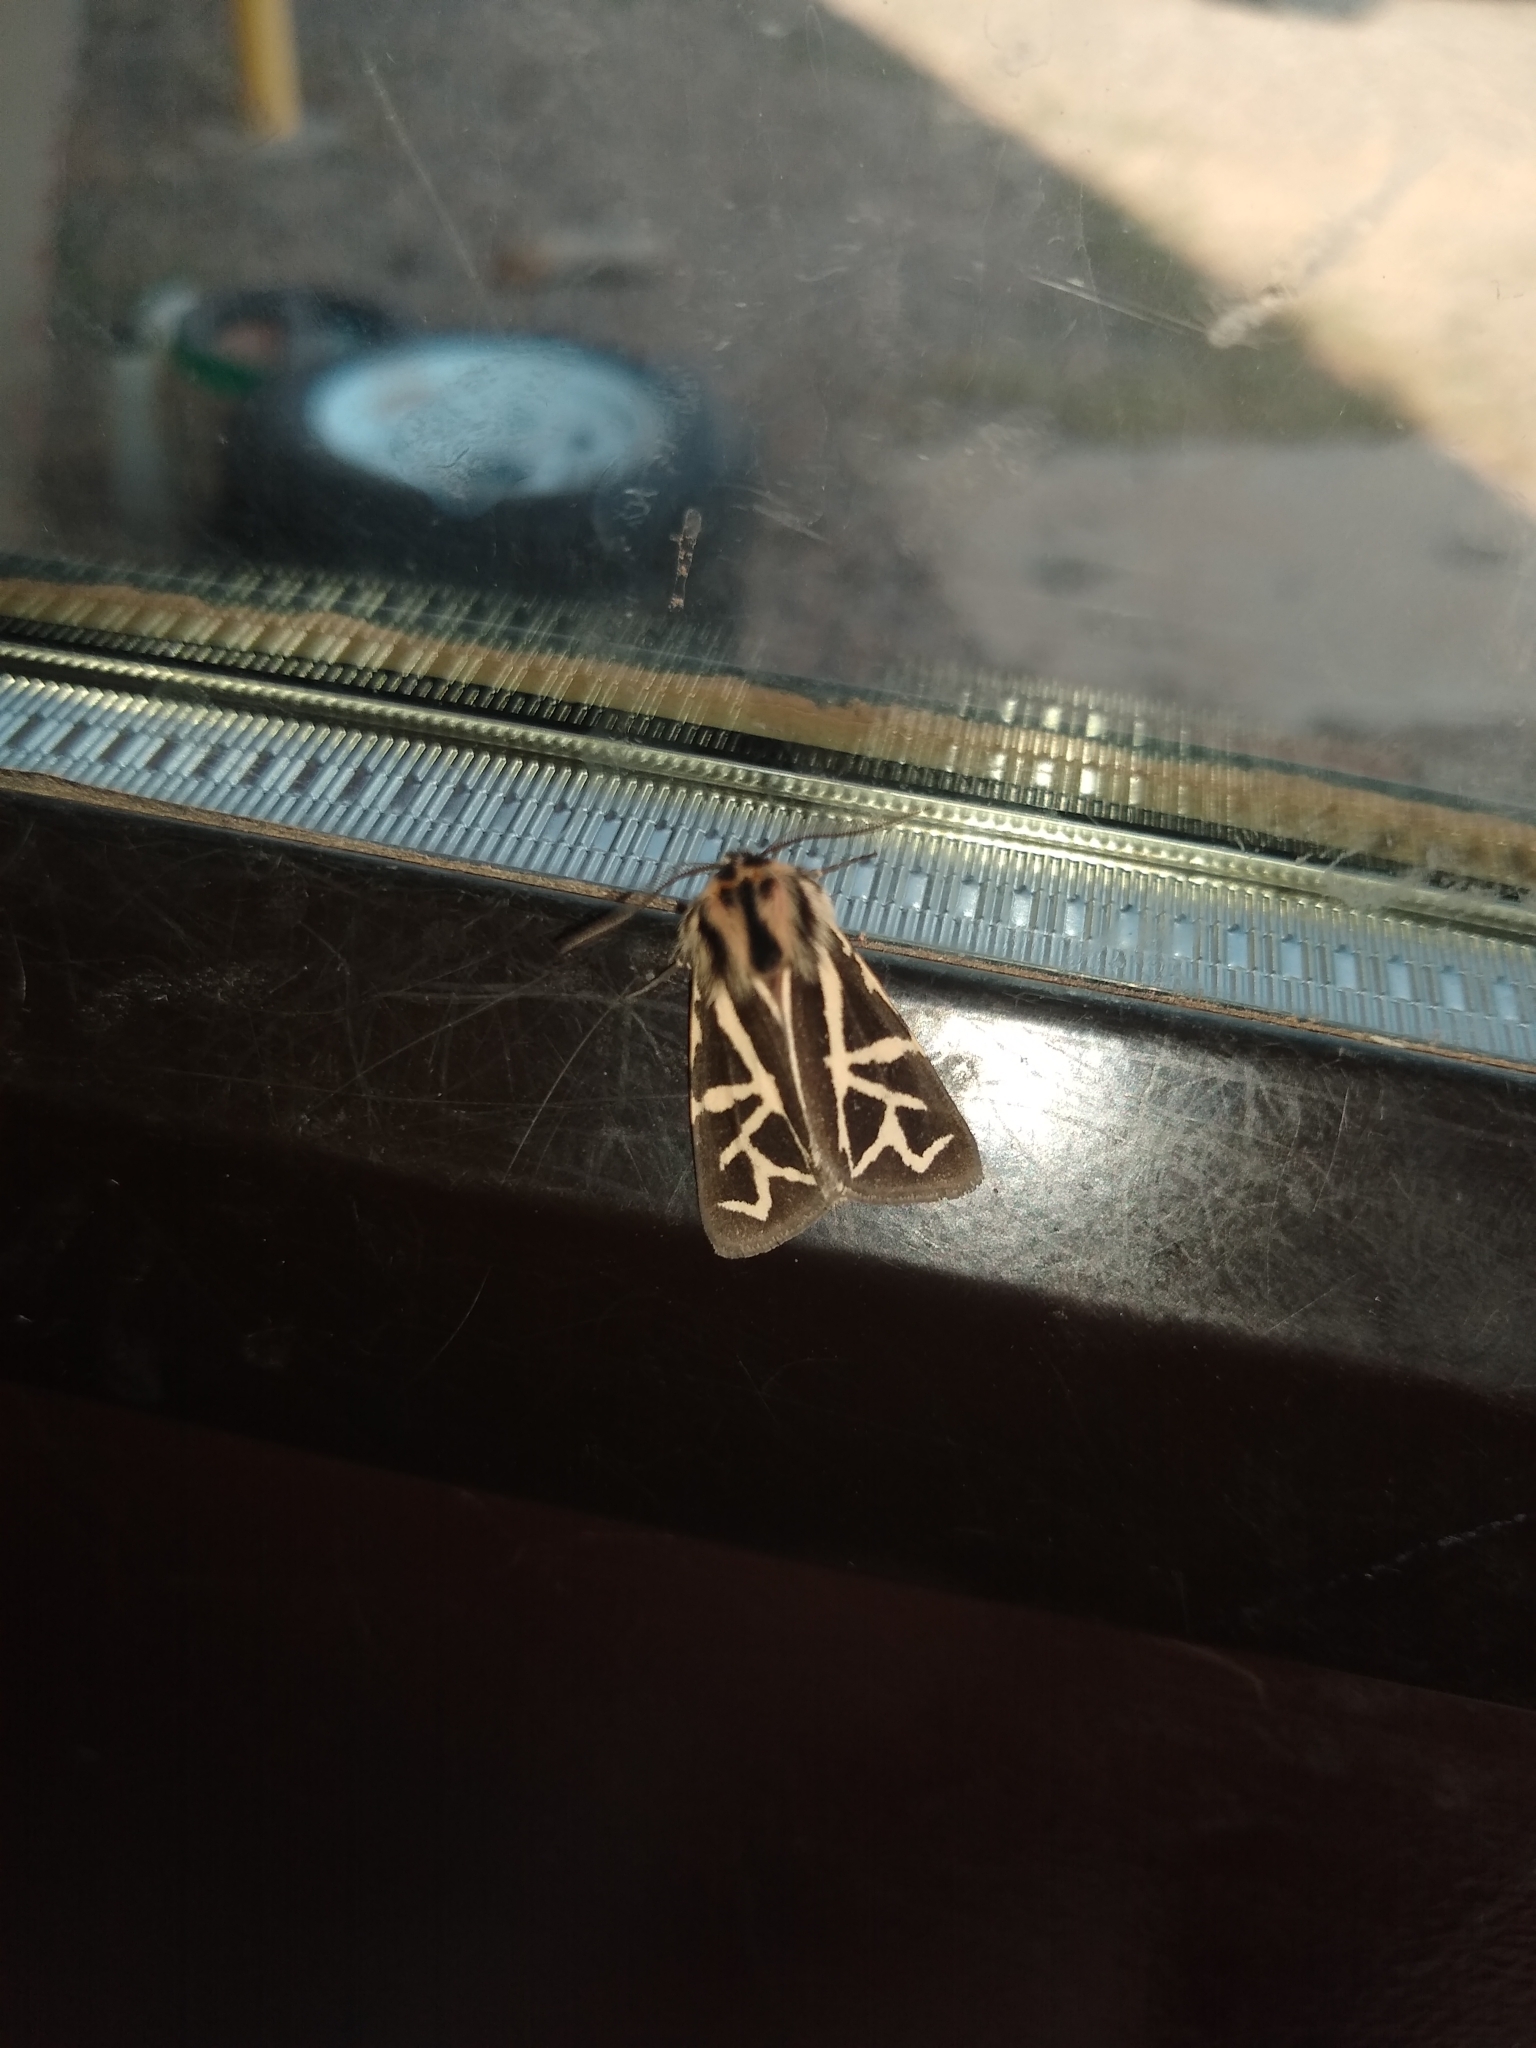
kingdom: Animalia
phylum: Arthropoda
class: Insecta
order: Lepidoptera
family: Erebidae
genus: Apantesis
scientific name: Apantesis
